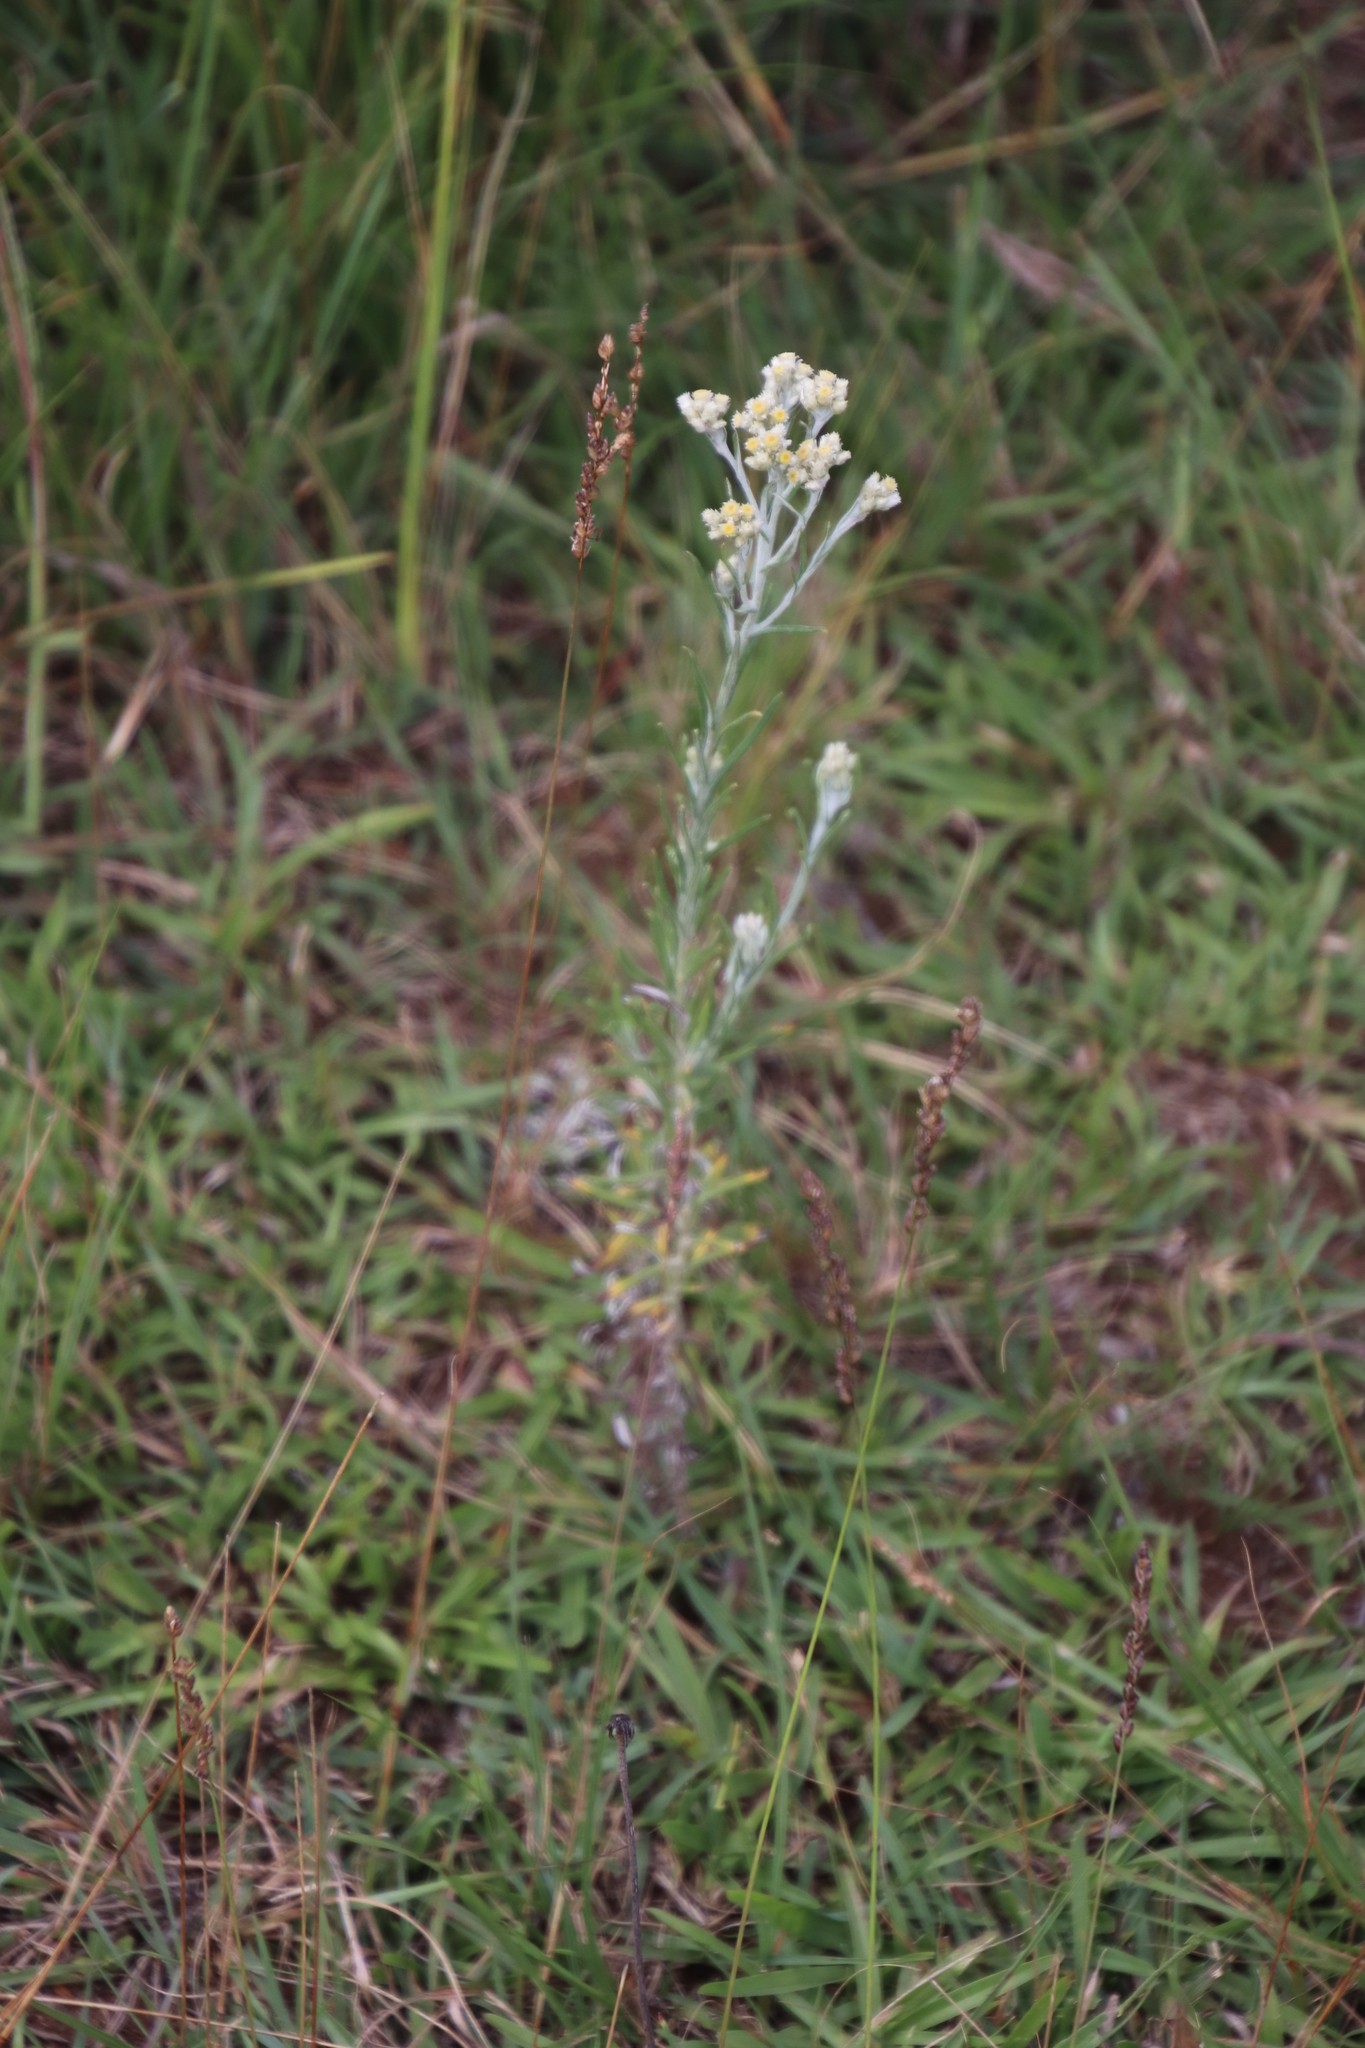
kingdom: Plantae
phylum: Tracheophyta
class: Magnoliopsida
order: Asterales
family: Asteraceae
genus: Helichrysum
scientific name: Helichrysum rugulosum
